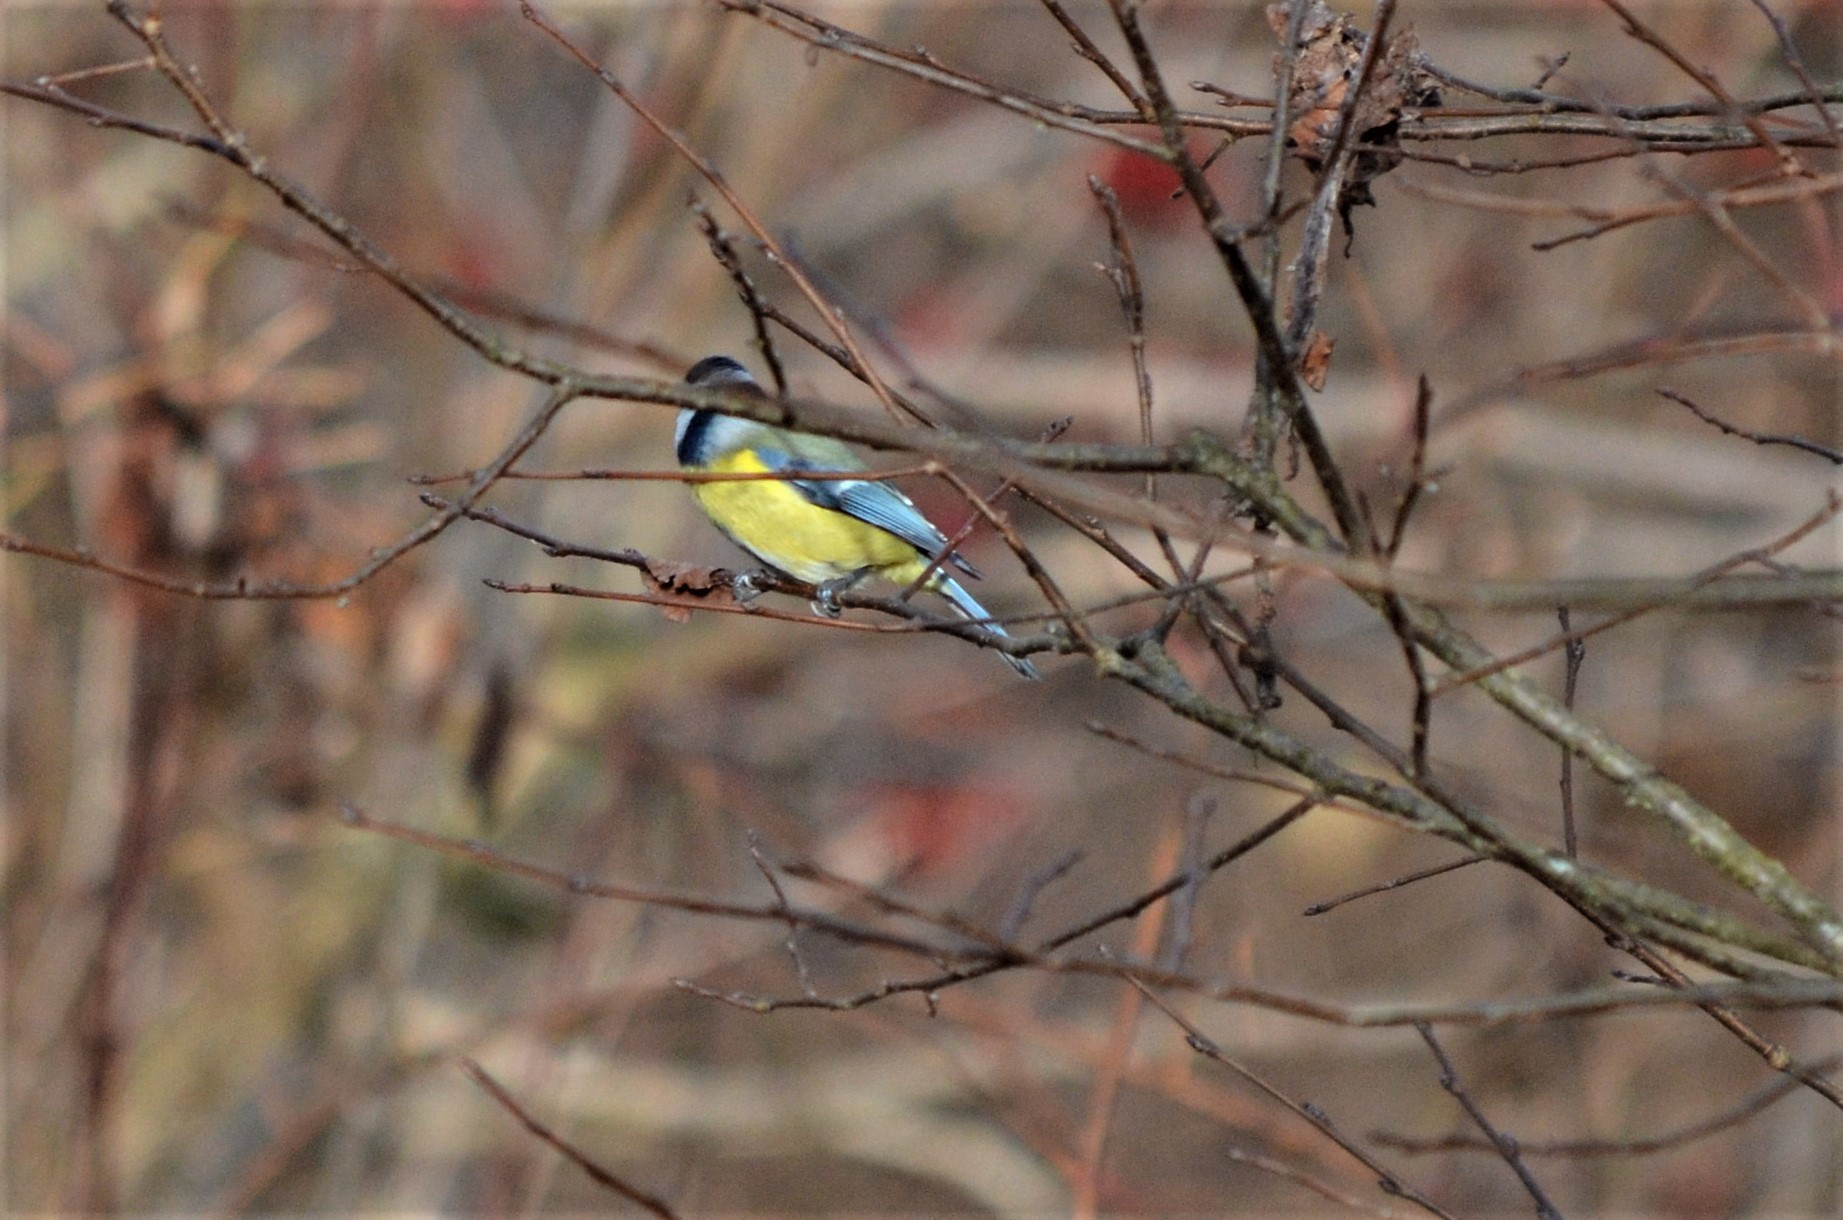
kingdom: Animalia
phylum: Chordata
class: Aves
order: Passeriformes
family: Paridae
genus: Cyanistes
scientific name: Cyanistes caeruleus
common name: Eurasian blue tit
